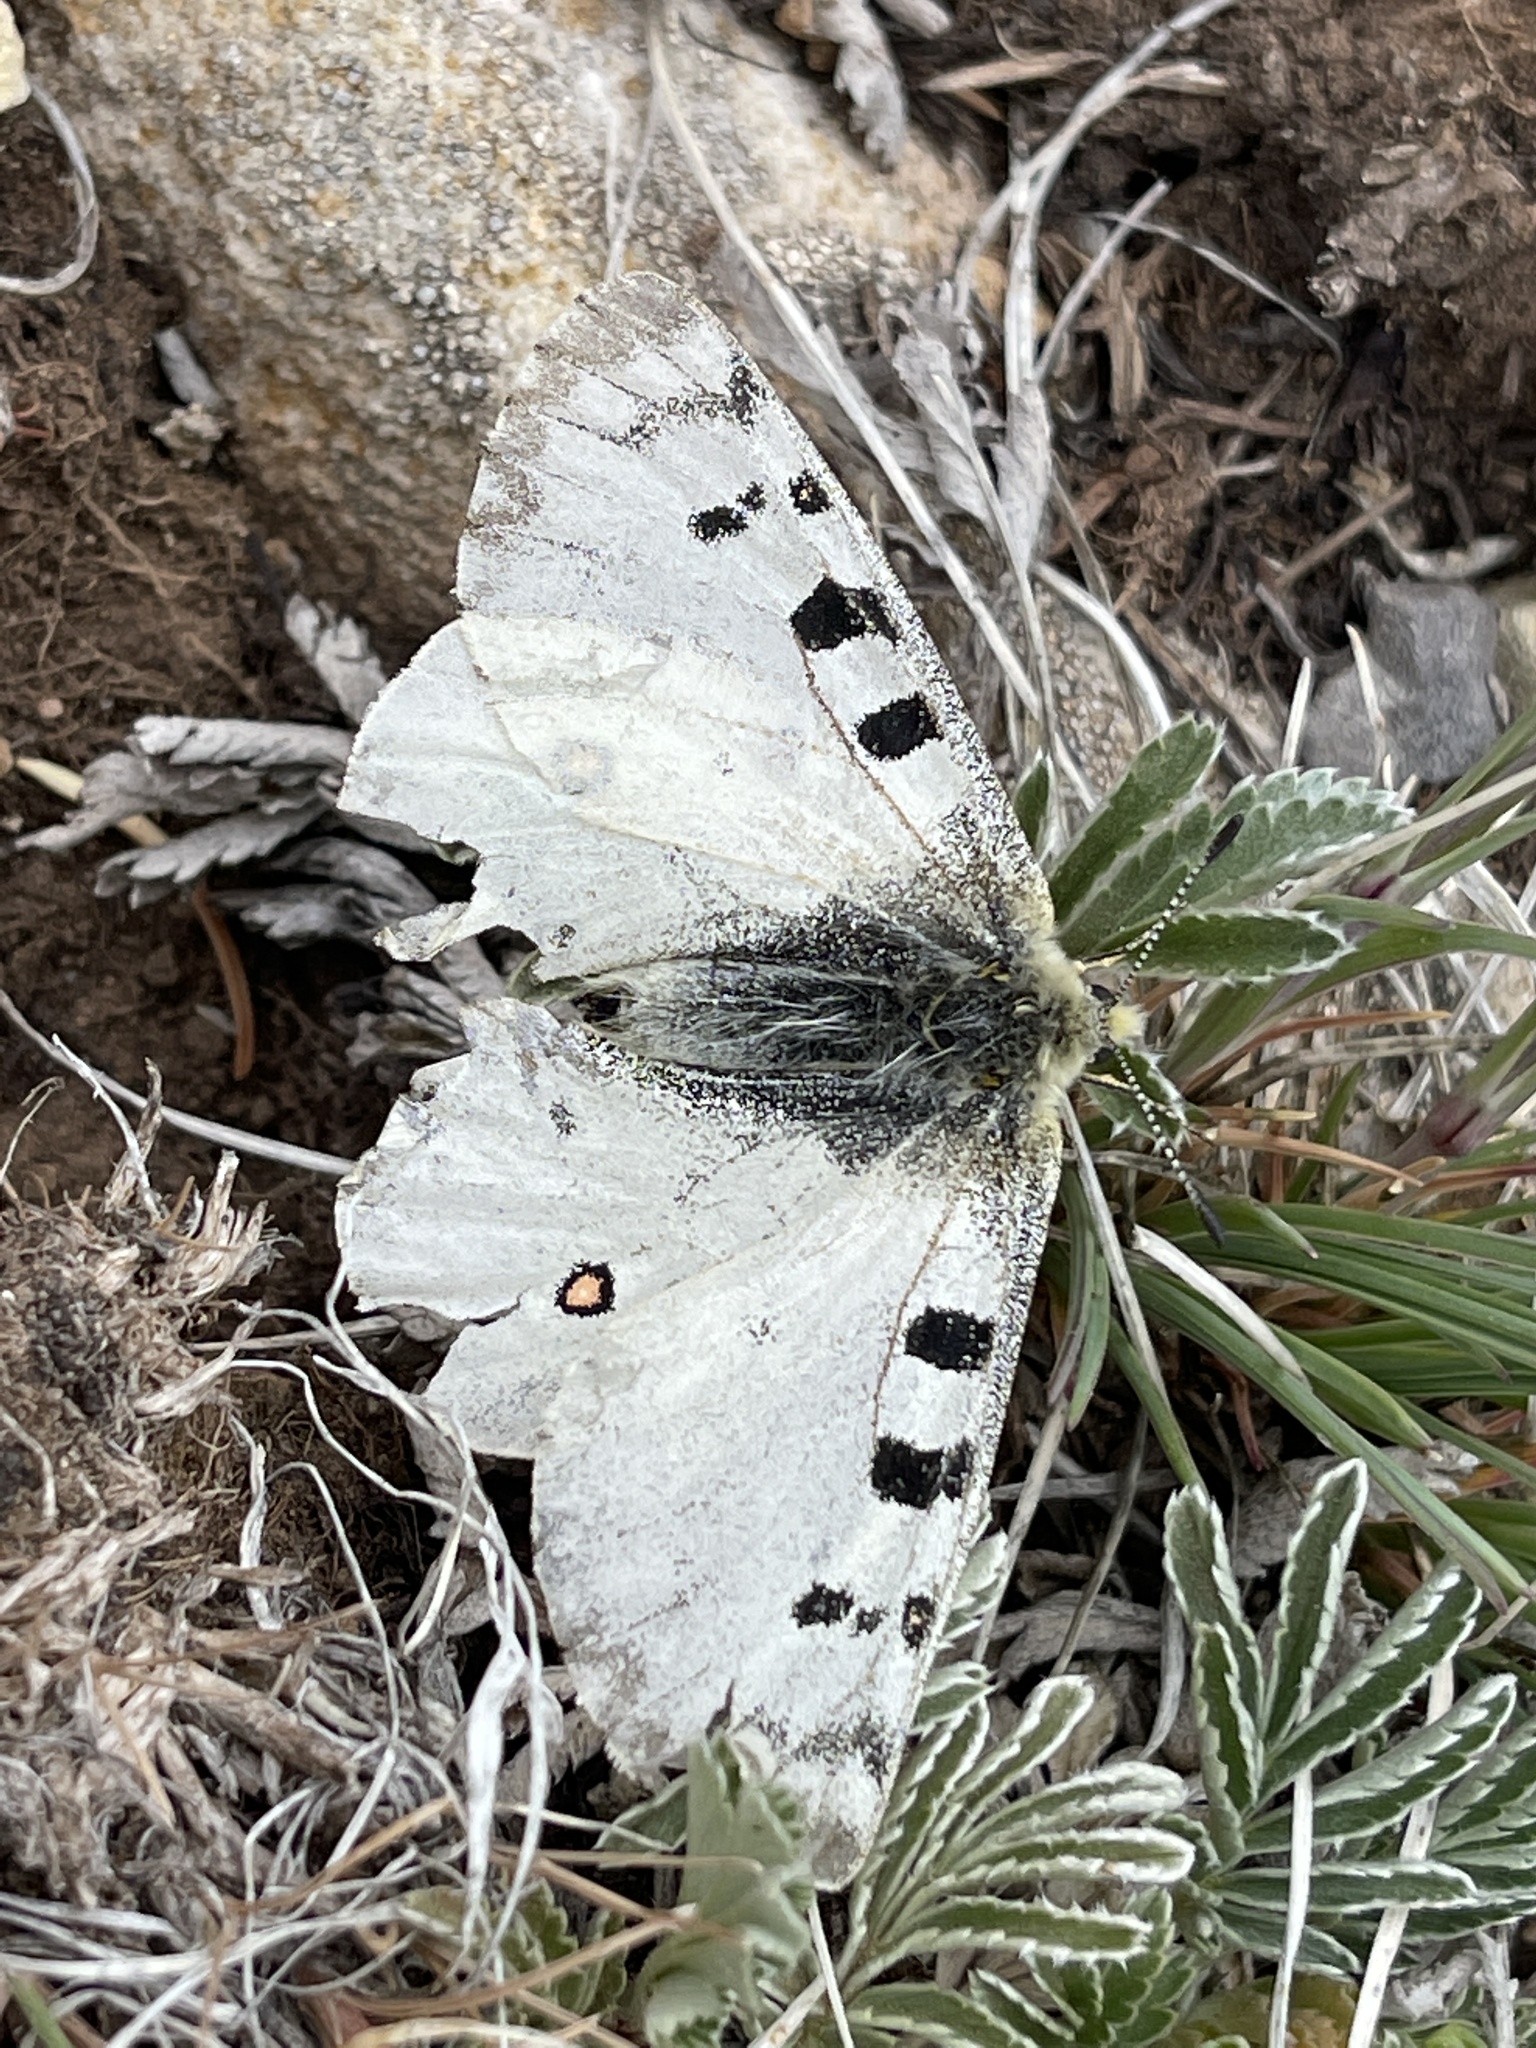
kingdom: Animalia
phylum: Arthropoda
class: Insecta
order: Lepidoptera
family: Papilionidae
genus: Parnassius
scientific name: Parnassius smintheus
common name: Mountain parnassian
